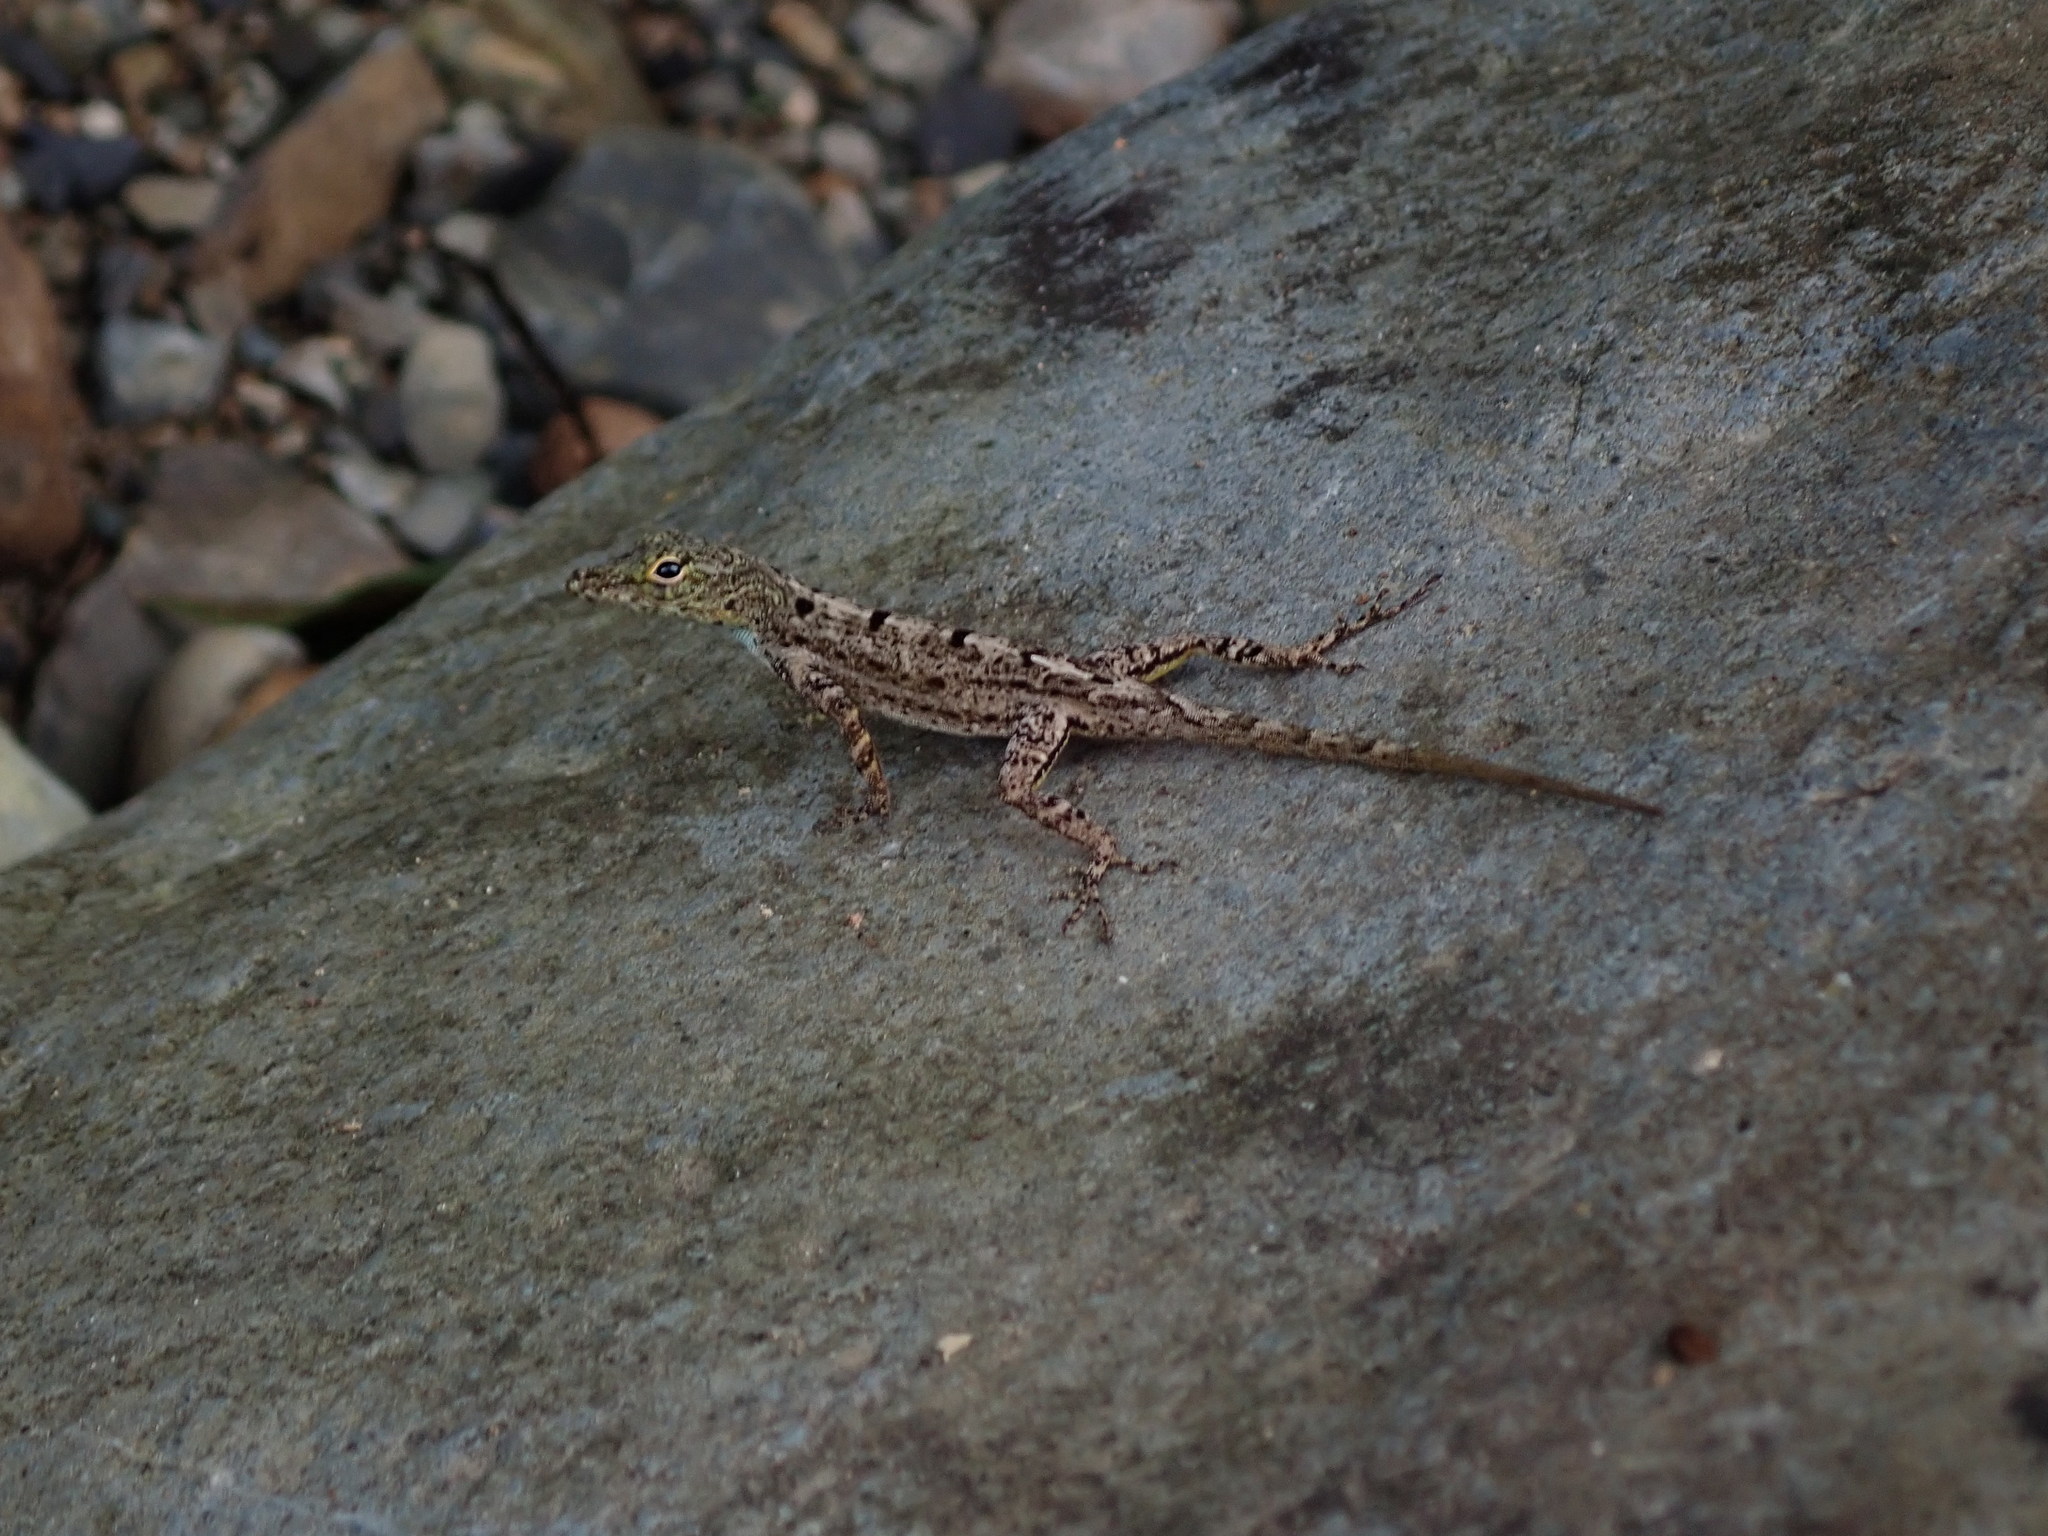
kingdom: Animalia
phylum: Chordata
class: Squamata
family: Dactyloidae
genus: Anolis
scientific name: Anolis stratulus
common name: Banded anole
